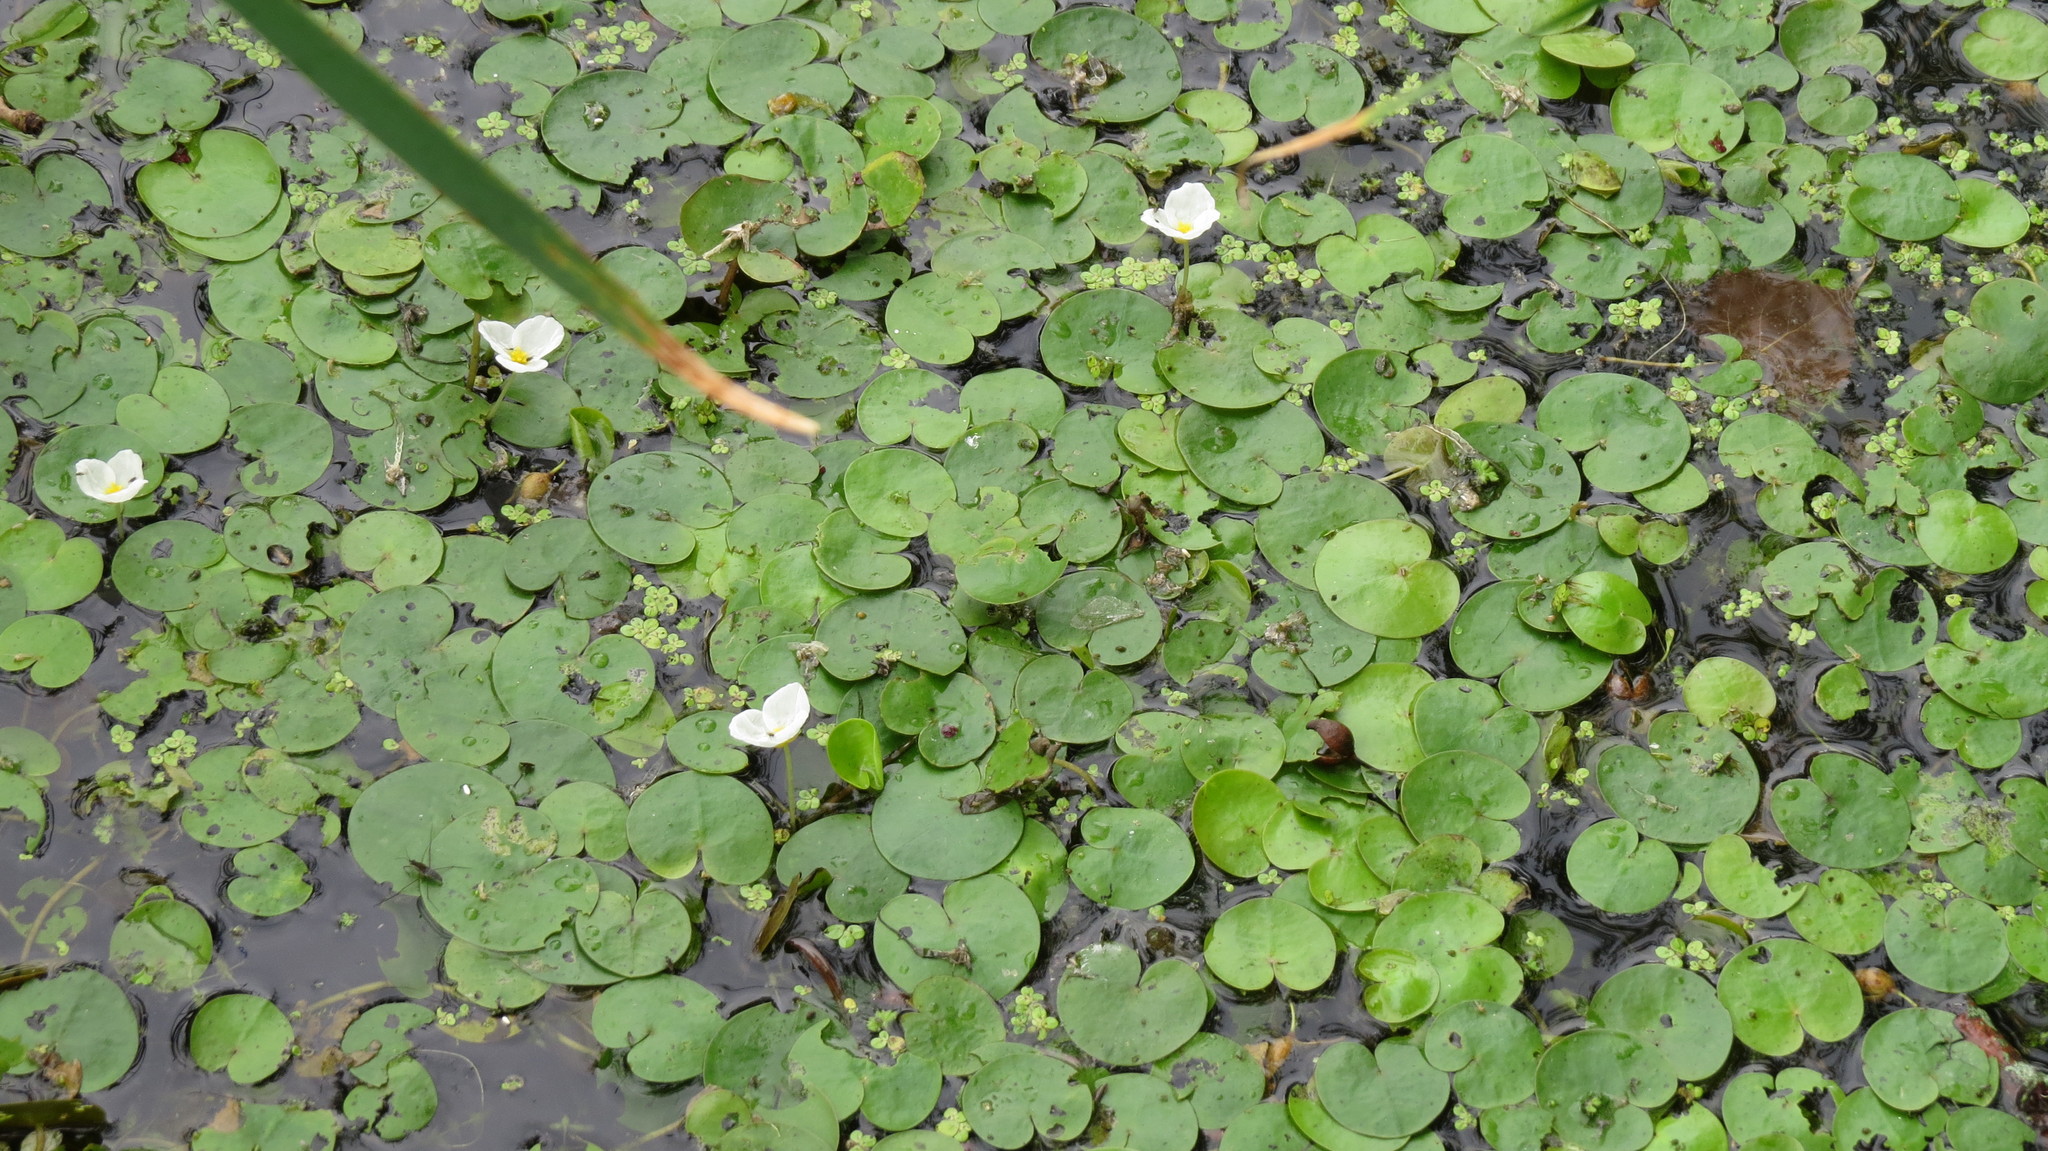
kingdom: Plantae
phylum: Tracheophyta
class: Liliopsida
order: Alismatales
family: Hydrocharitaceae
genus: Hydrocharis
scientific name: Hydrocharis morsus-ranae
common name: Frogbit
